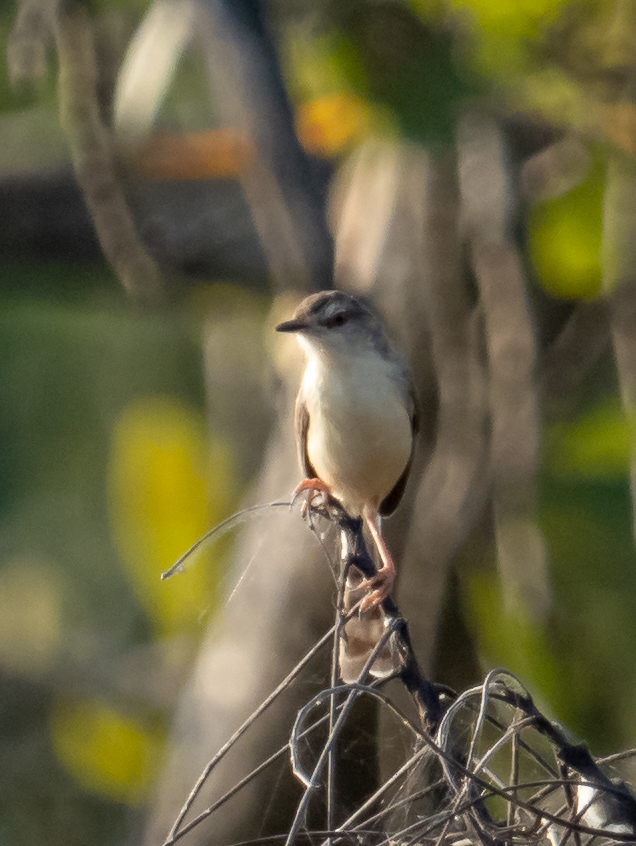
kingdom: Animalia
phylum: Chordata
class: Aves
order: Passeriformes
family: Cisticolidae
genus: Prinia
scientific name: Prinia inornata
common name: Plain prinia
